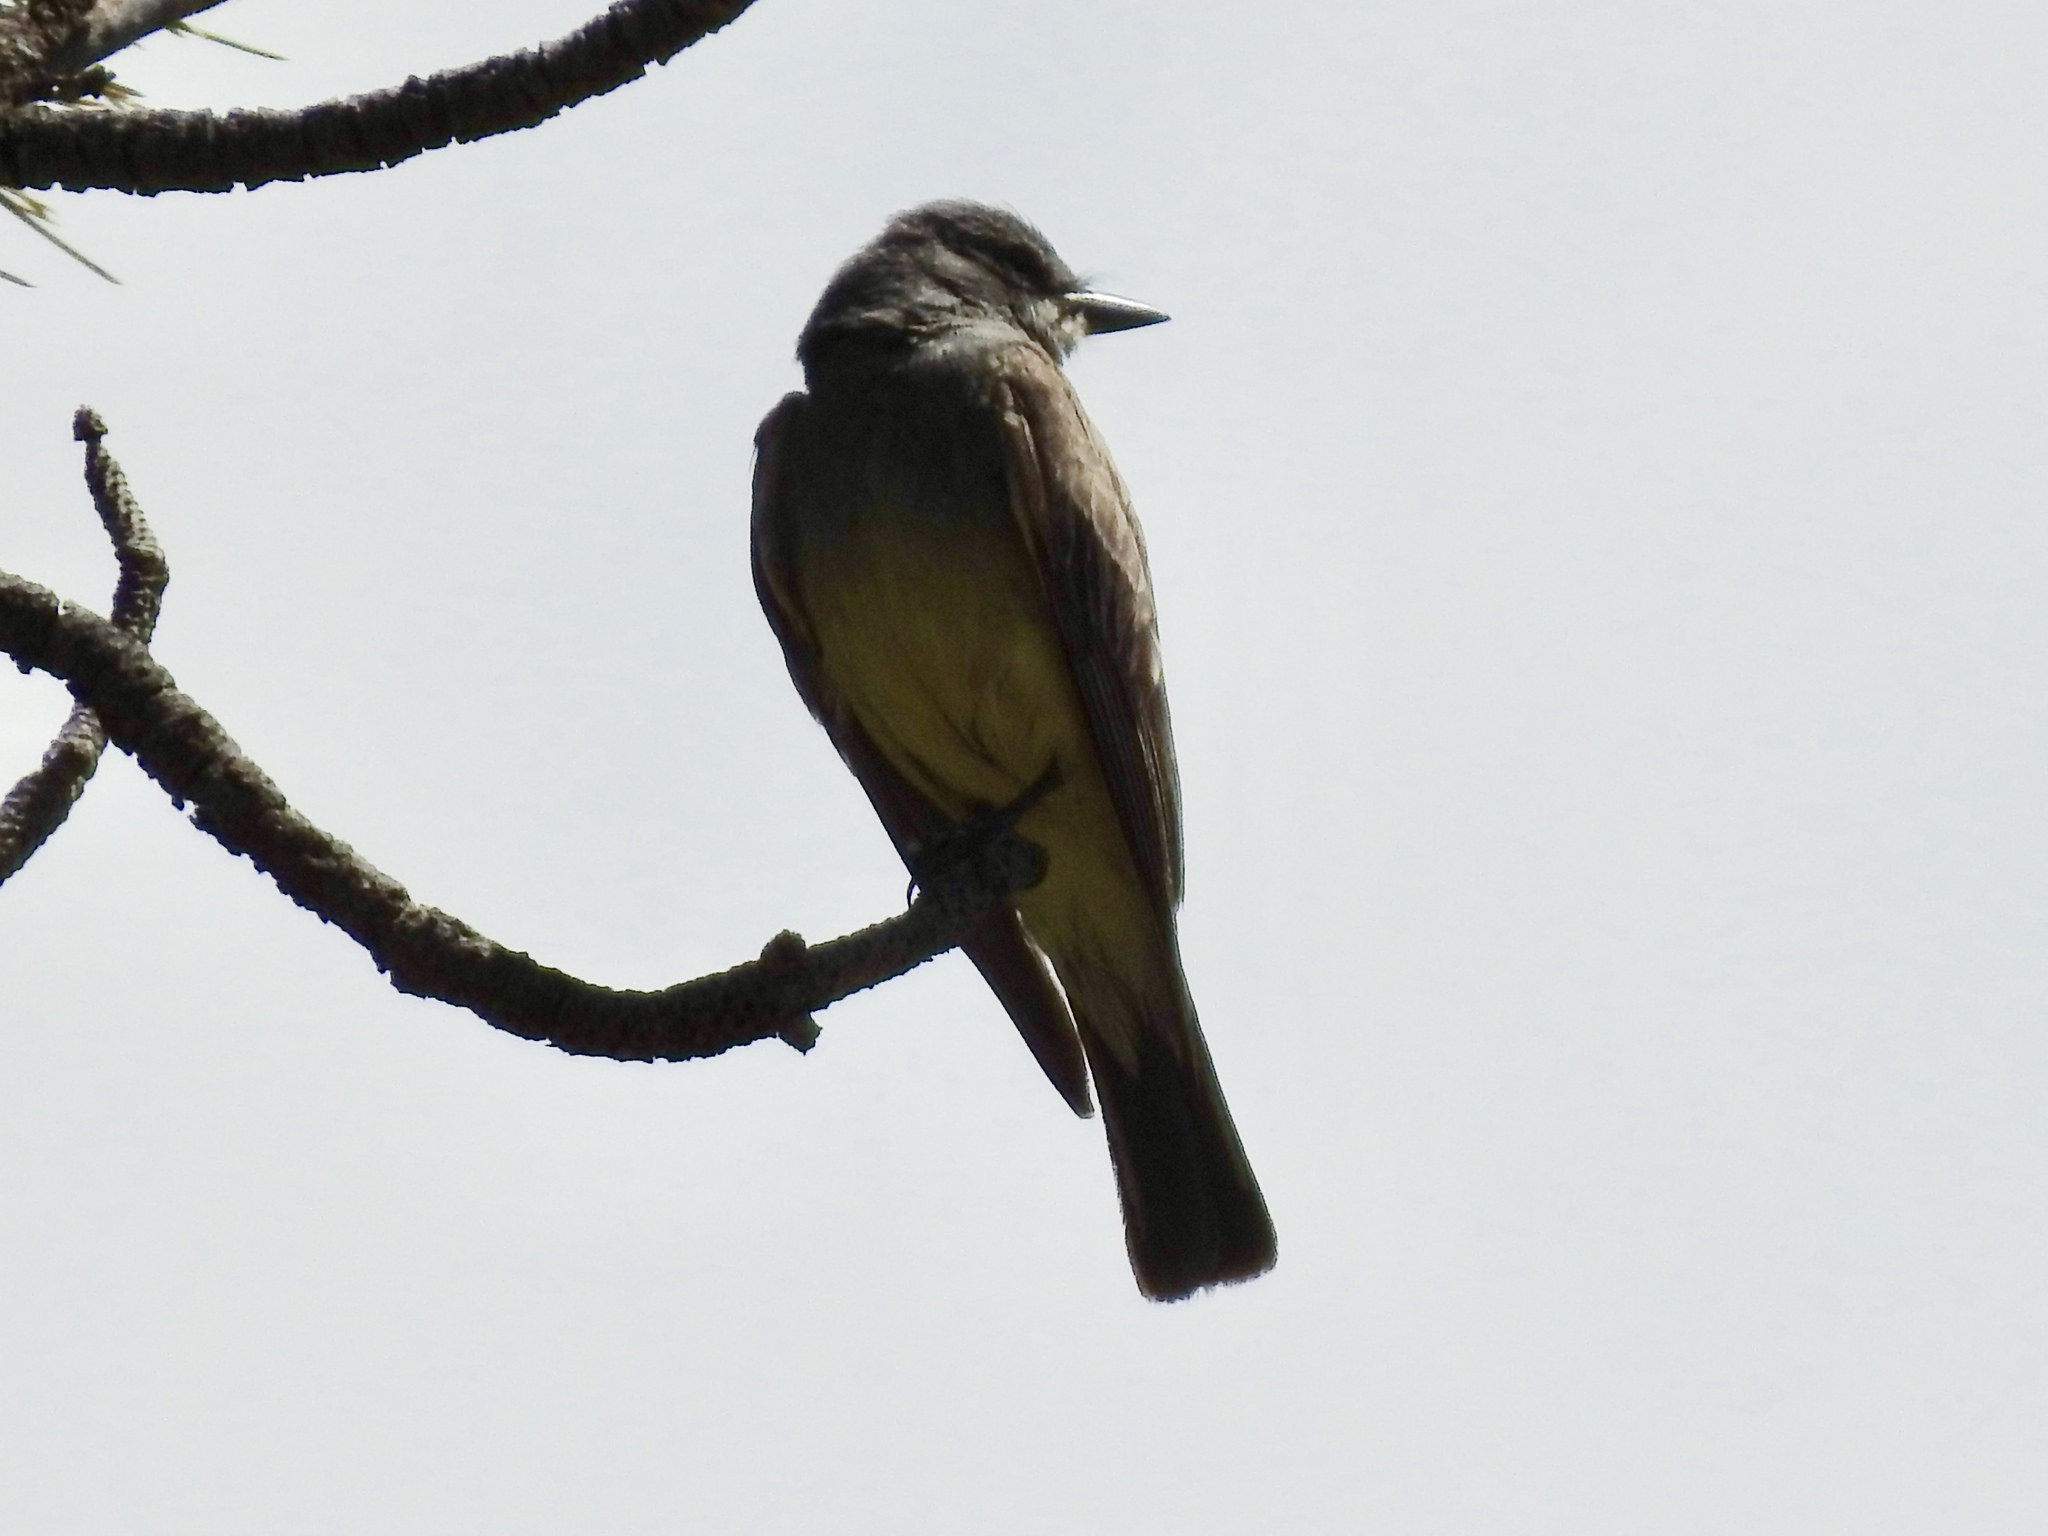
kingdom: Animalia
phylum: Chordata
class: Aves
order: Passeriformes
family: Tyrannidae
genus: Tyrannus
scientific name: Tyrannus vociferans
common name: Cassin's kingbird
